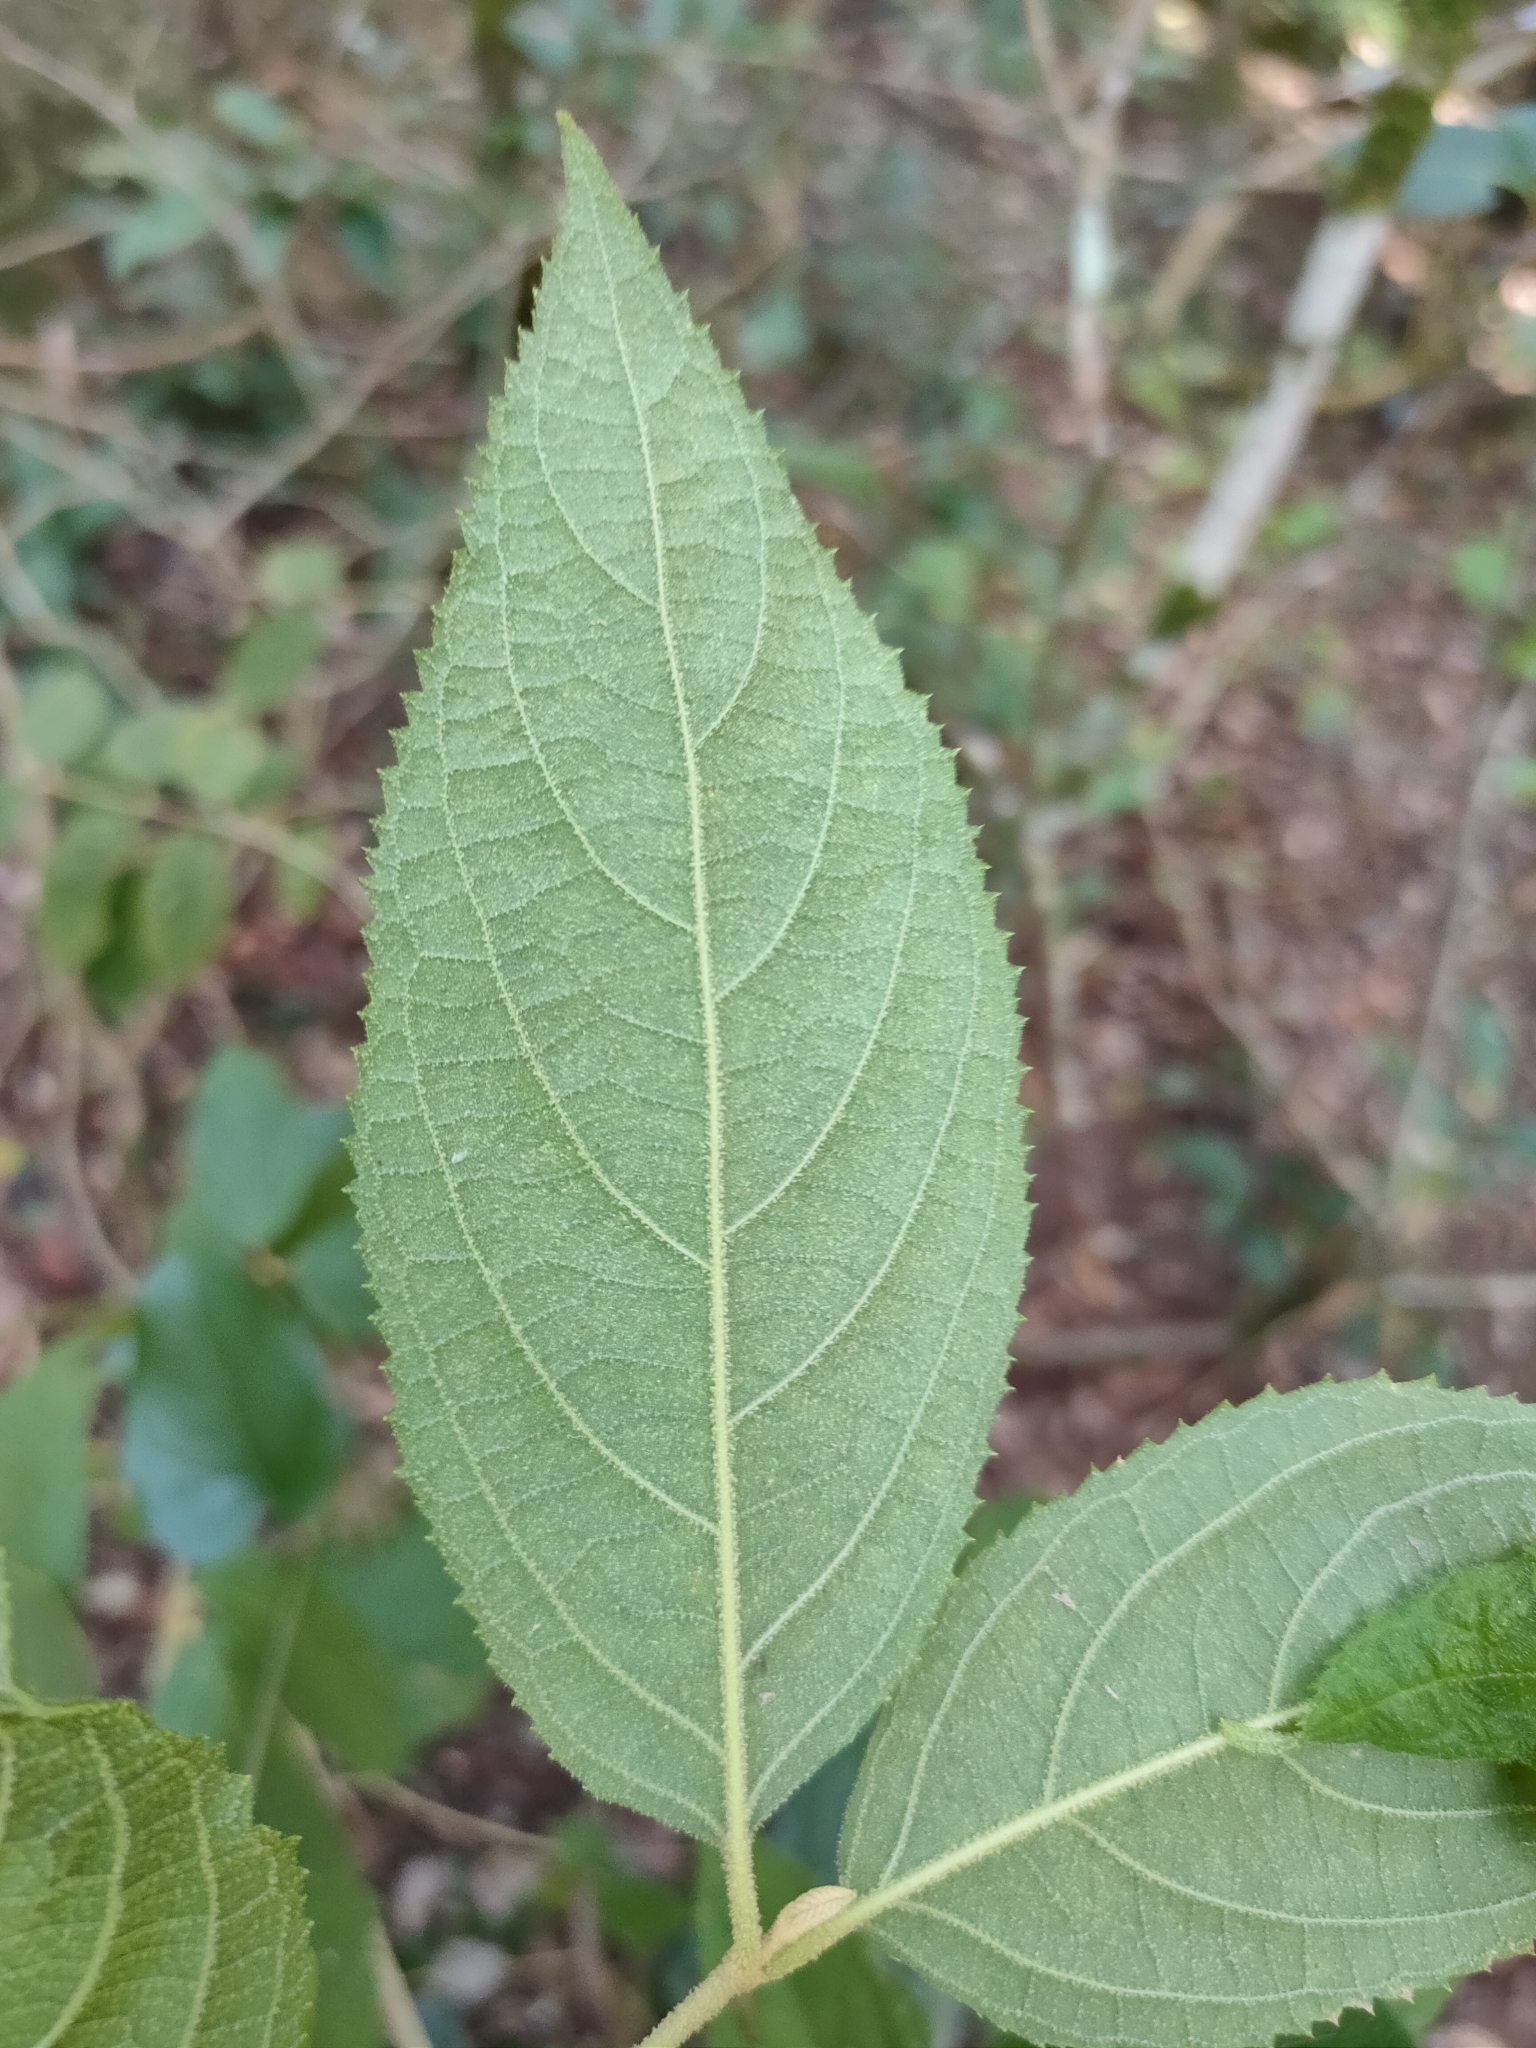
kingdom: Plantae
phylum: Tracheophyta
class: Magnoliopsida
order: Lamiales
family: Lamiaceae
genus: Callicarpa
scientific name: Callicarpa pedunculata
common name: Velvetleaf
